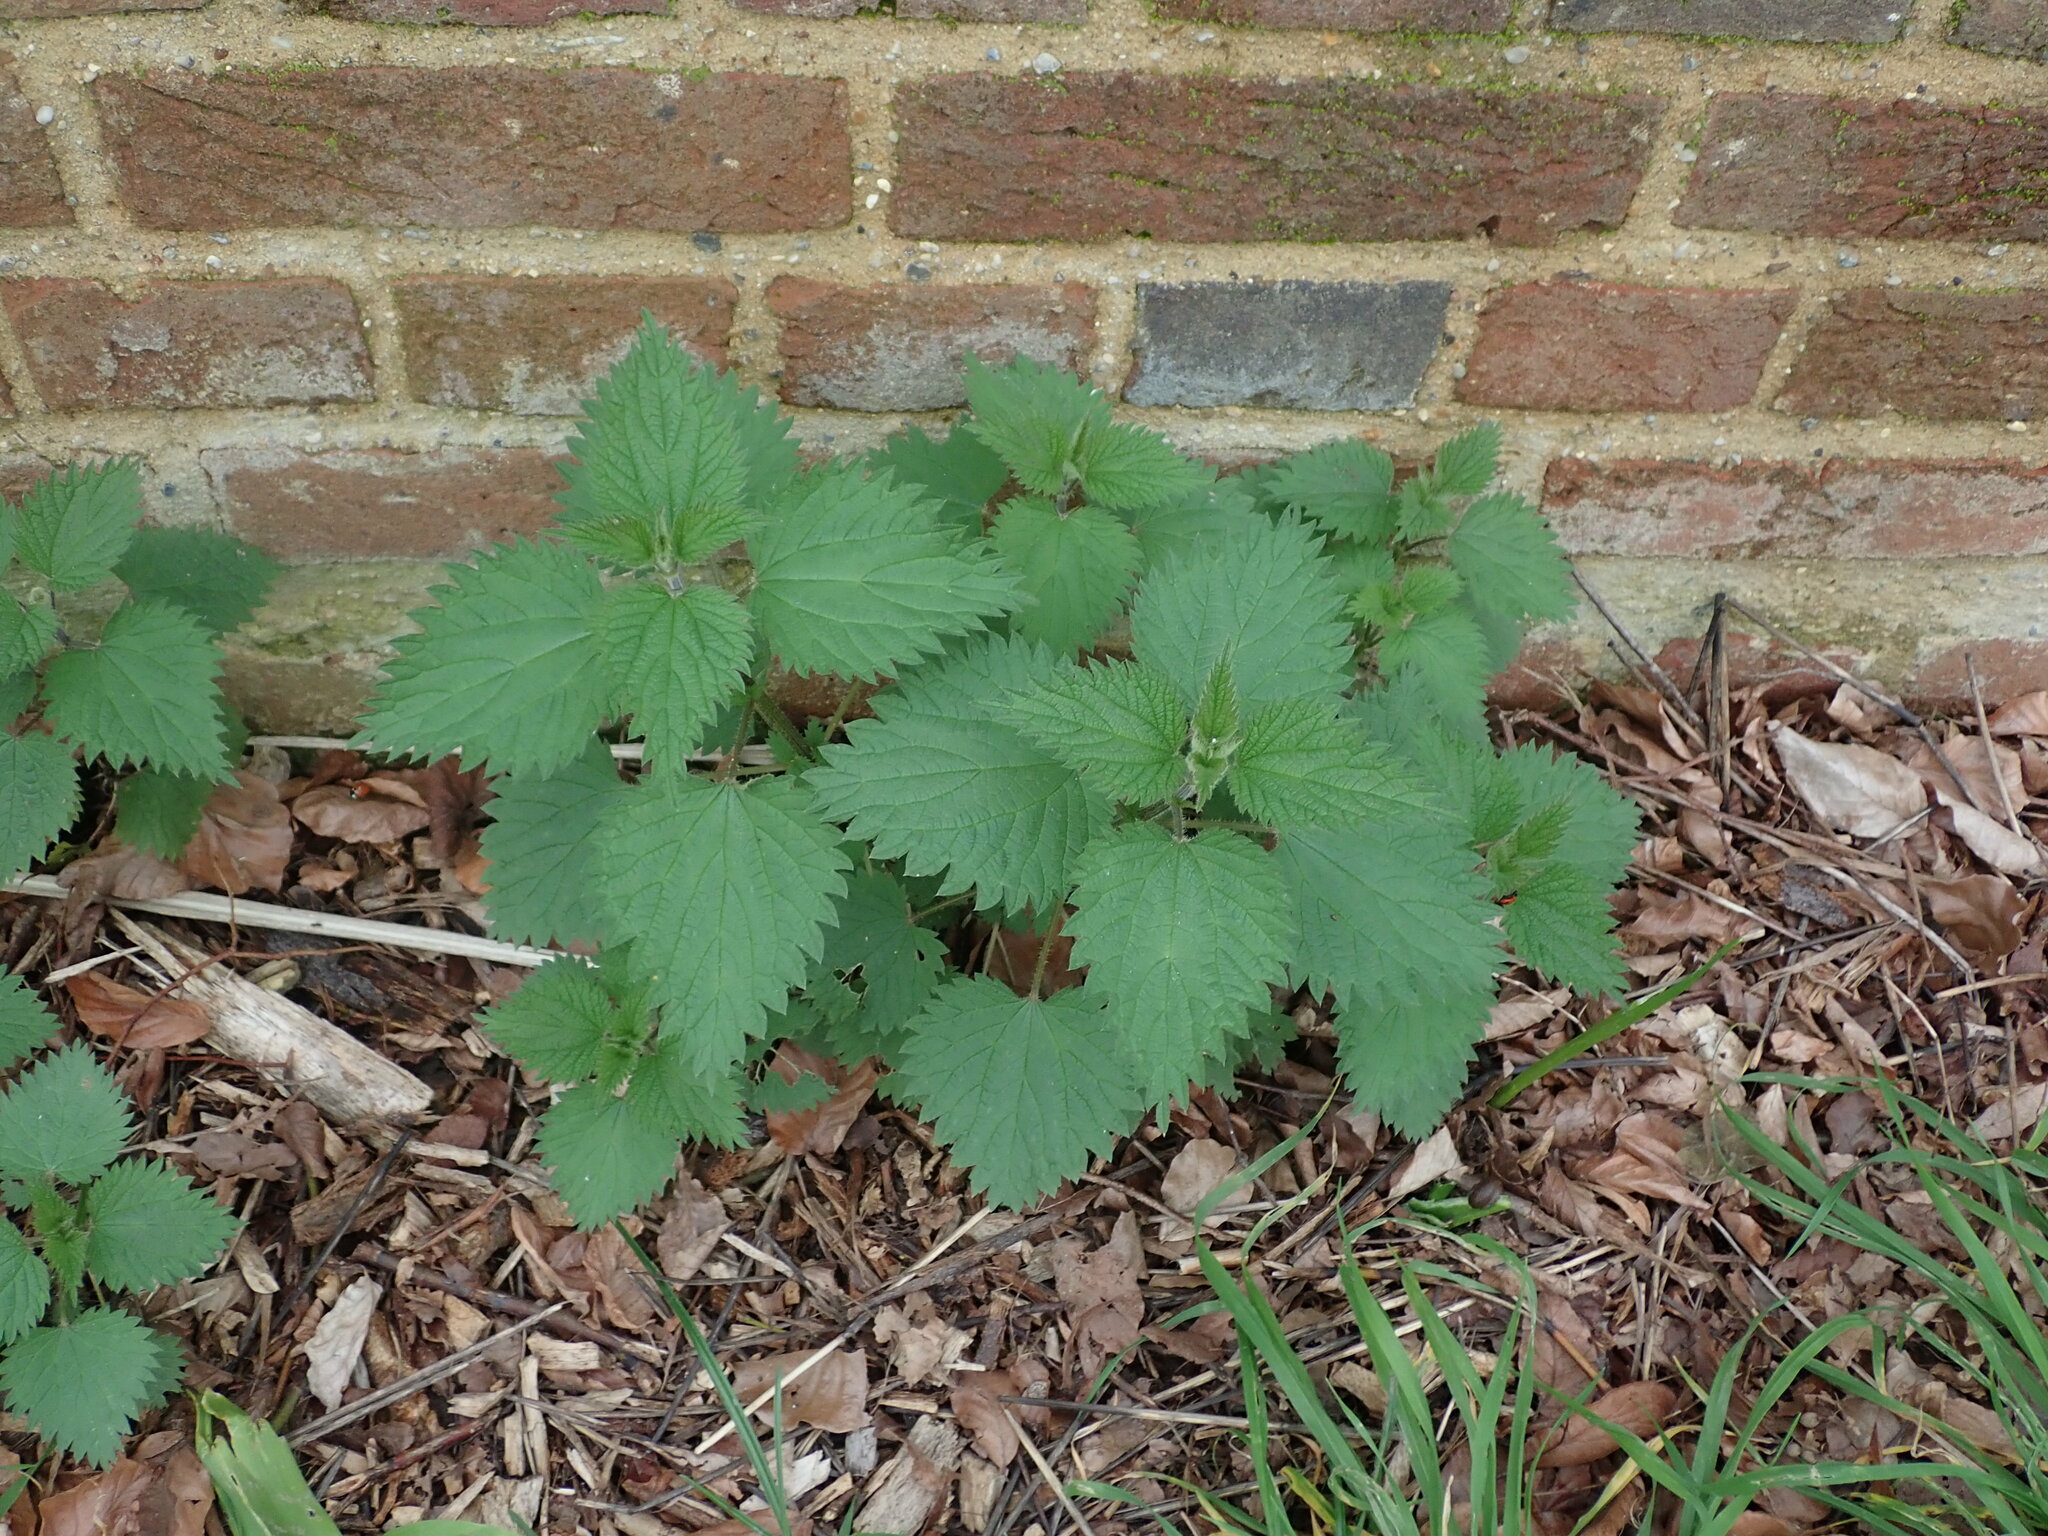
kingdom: Plantae
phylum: Tracheophyta
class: Magnoliopsida
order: Rosales
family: Urticaceae
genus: Urtica
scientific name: Urtica dioica
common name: Common nettle
